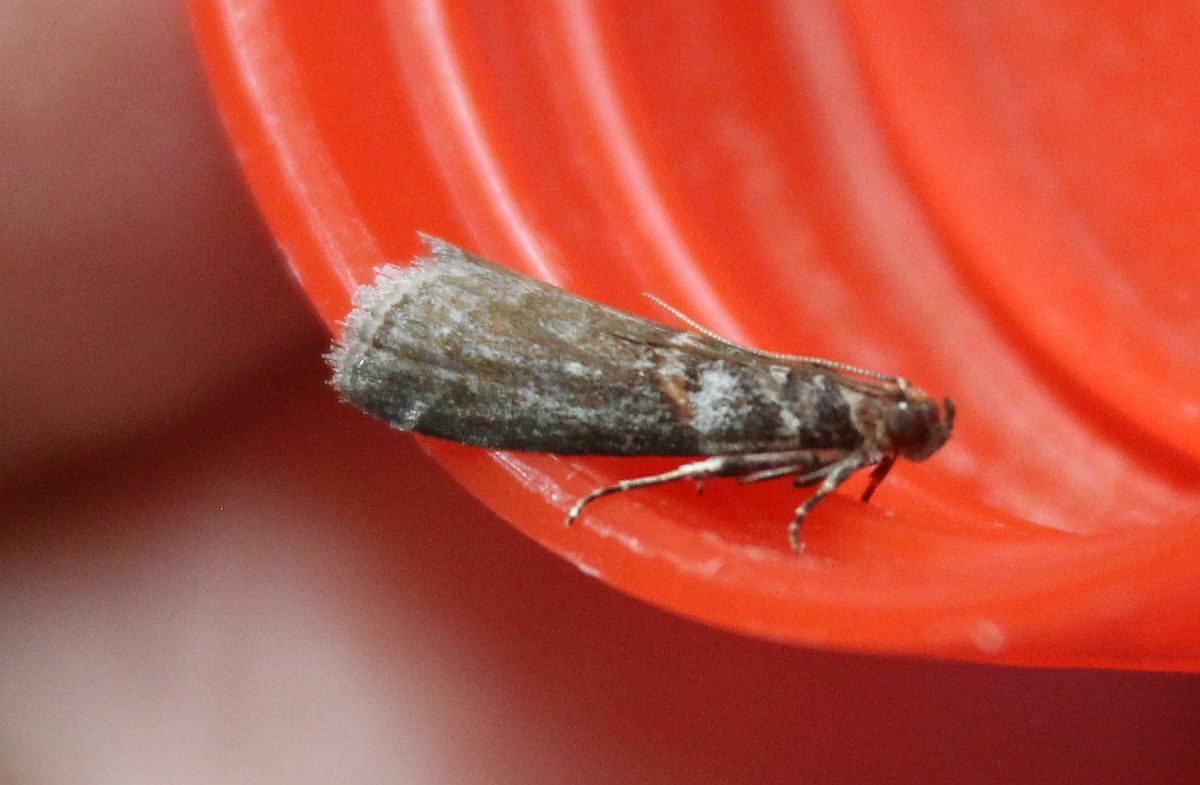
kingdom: Animalia
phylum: Arthropoda
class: Insecta
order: Lepidoptera
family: Pyralidae
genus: Acrobasis
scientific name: Acrobasis advenella
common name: Grey knot-horn
